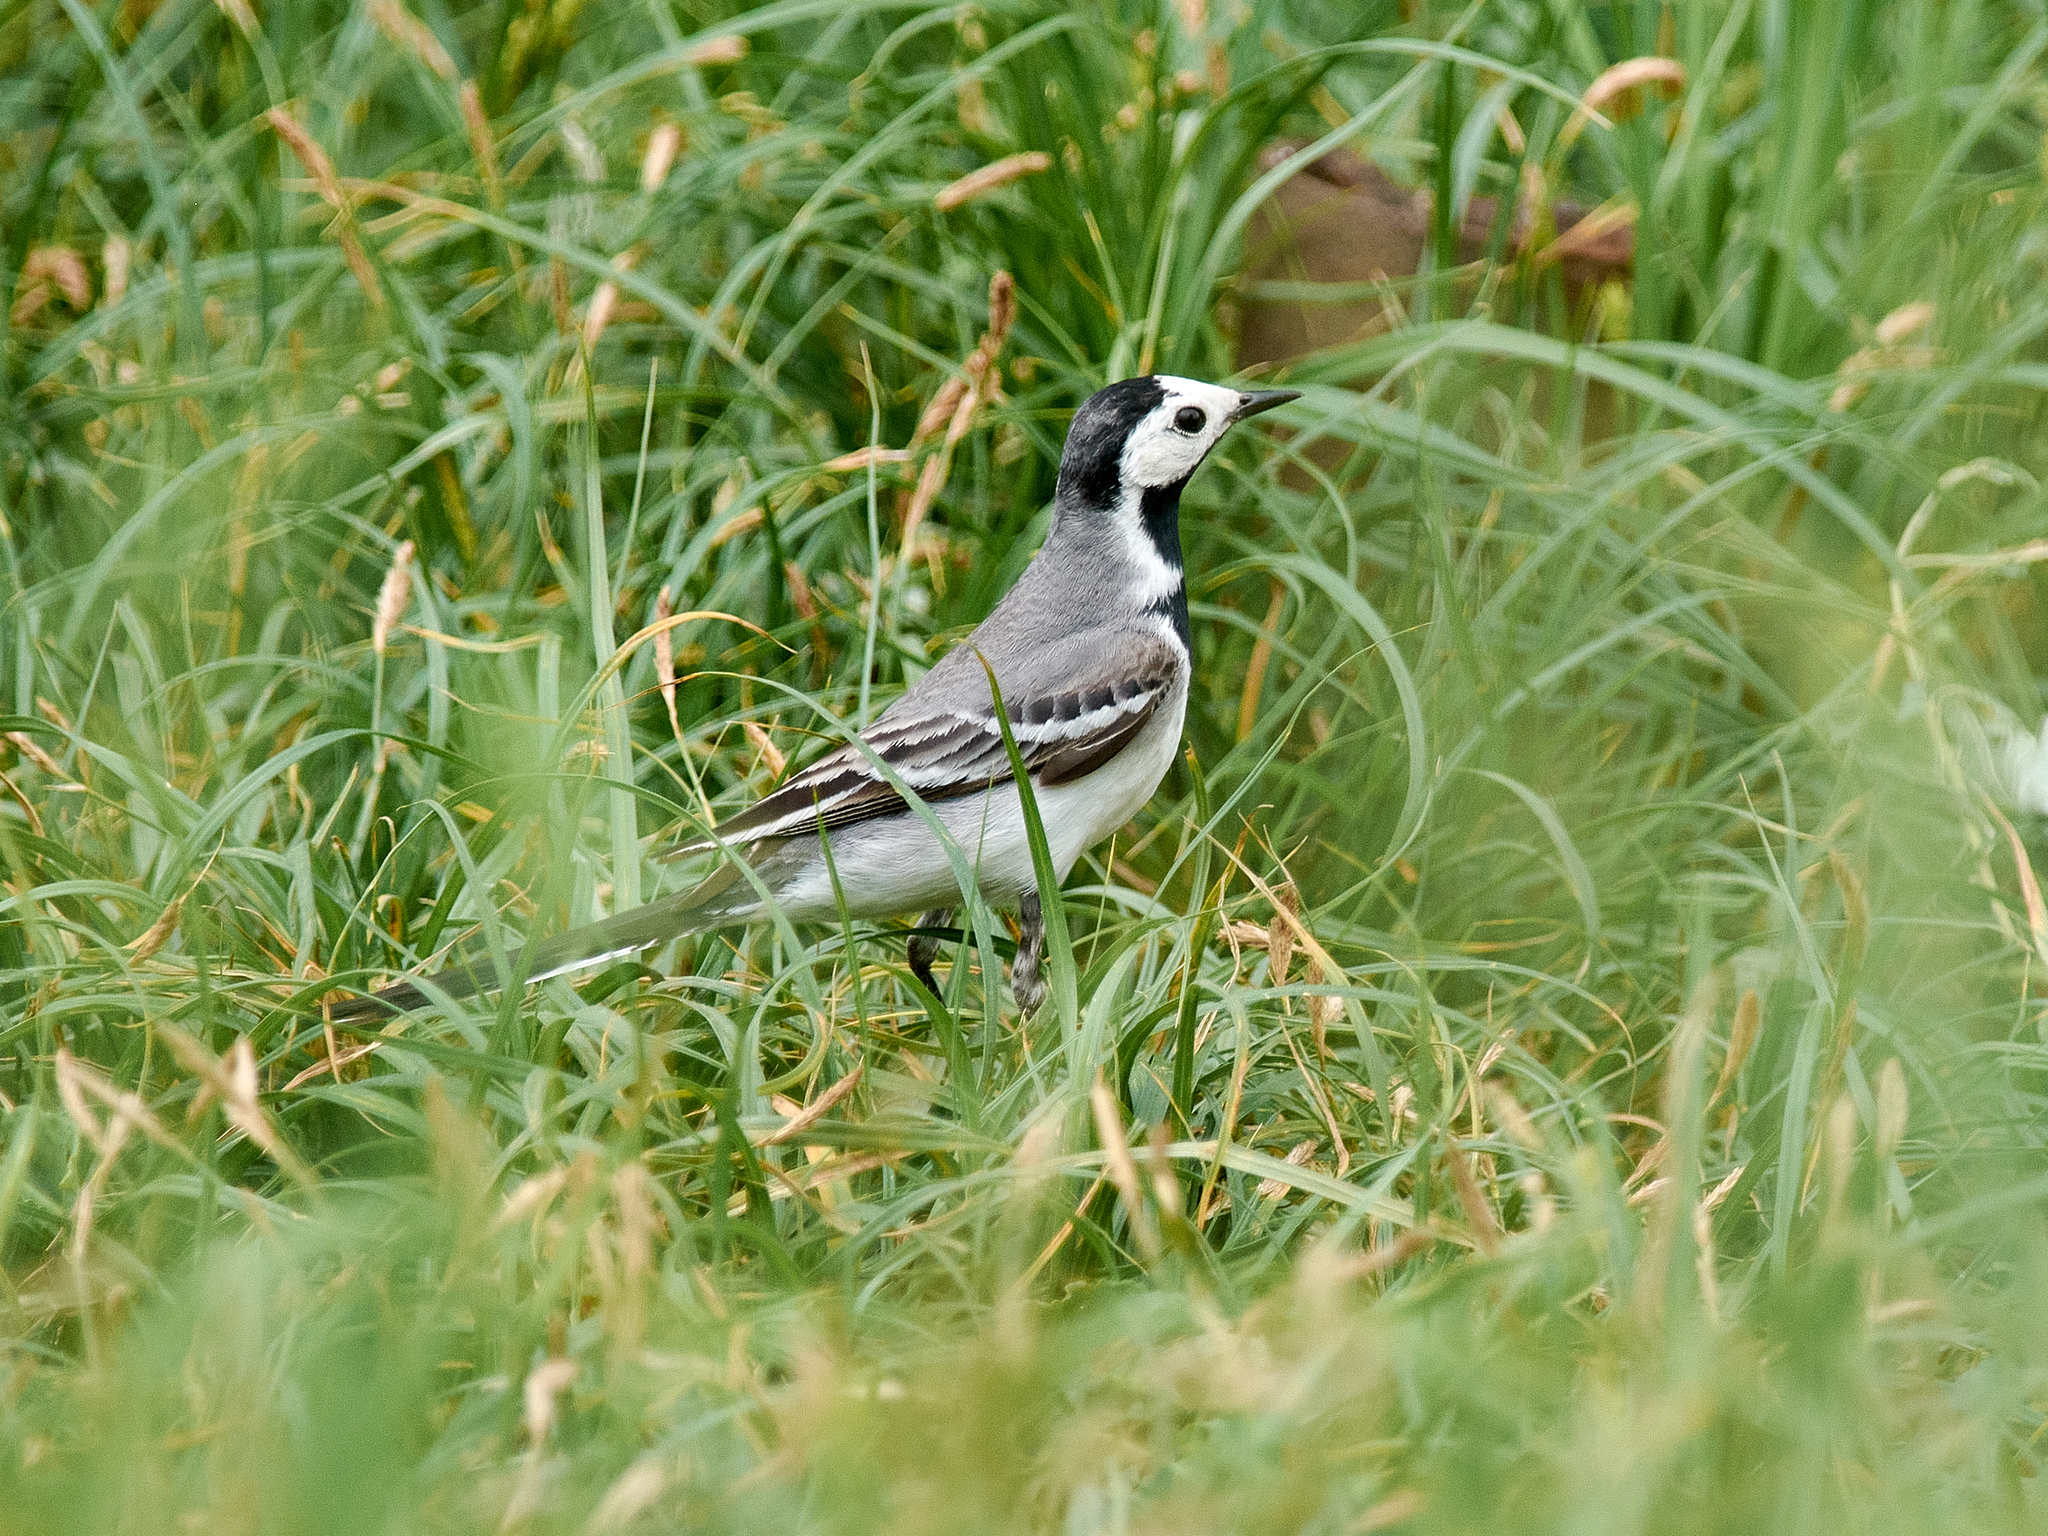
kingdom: Animalia
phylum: Chordata
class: Aves
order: Passeriformes
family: Motacillidae
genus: Motacilla
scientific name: Motacilla alba
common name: White wagtail
